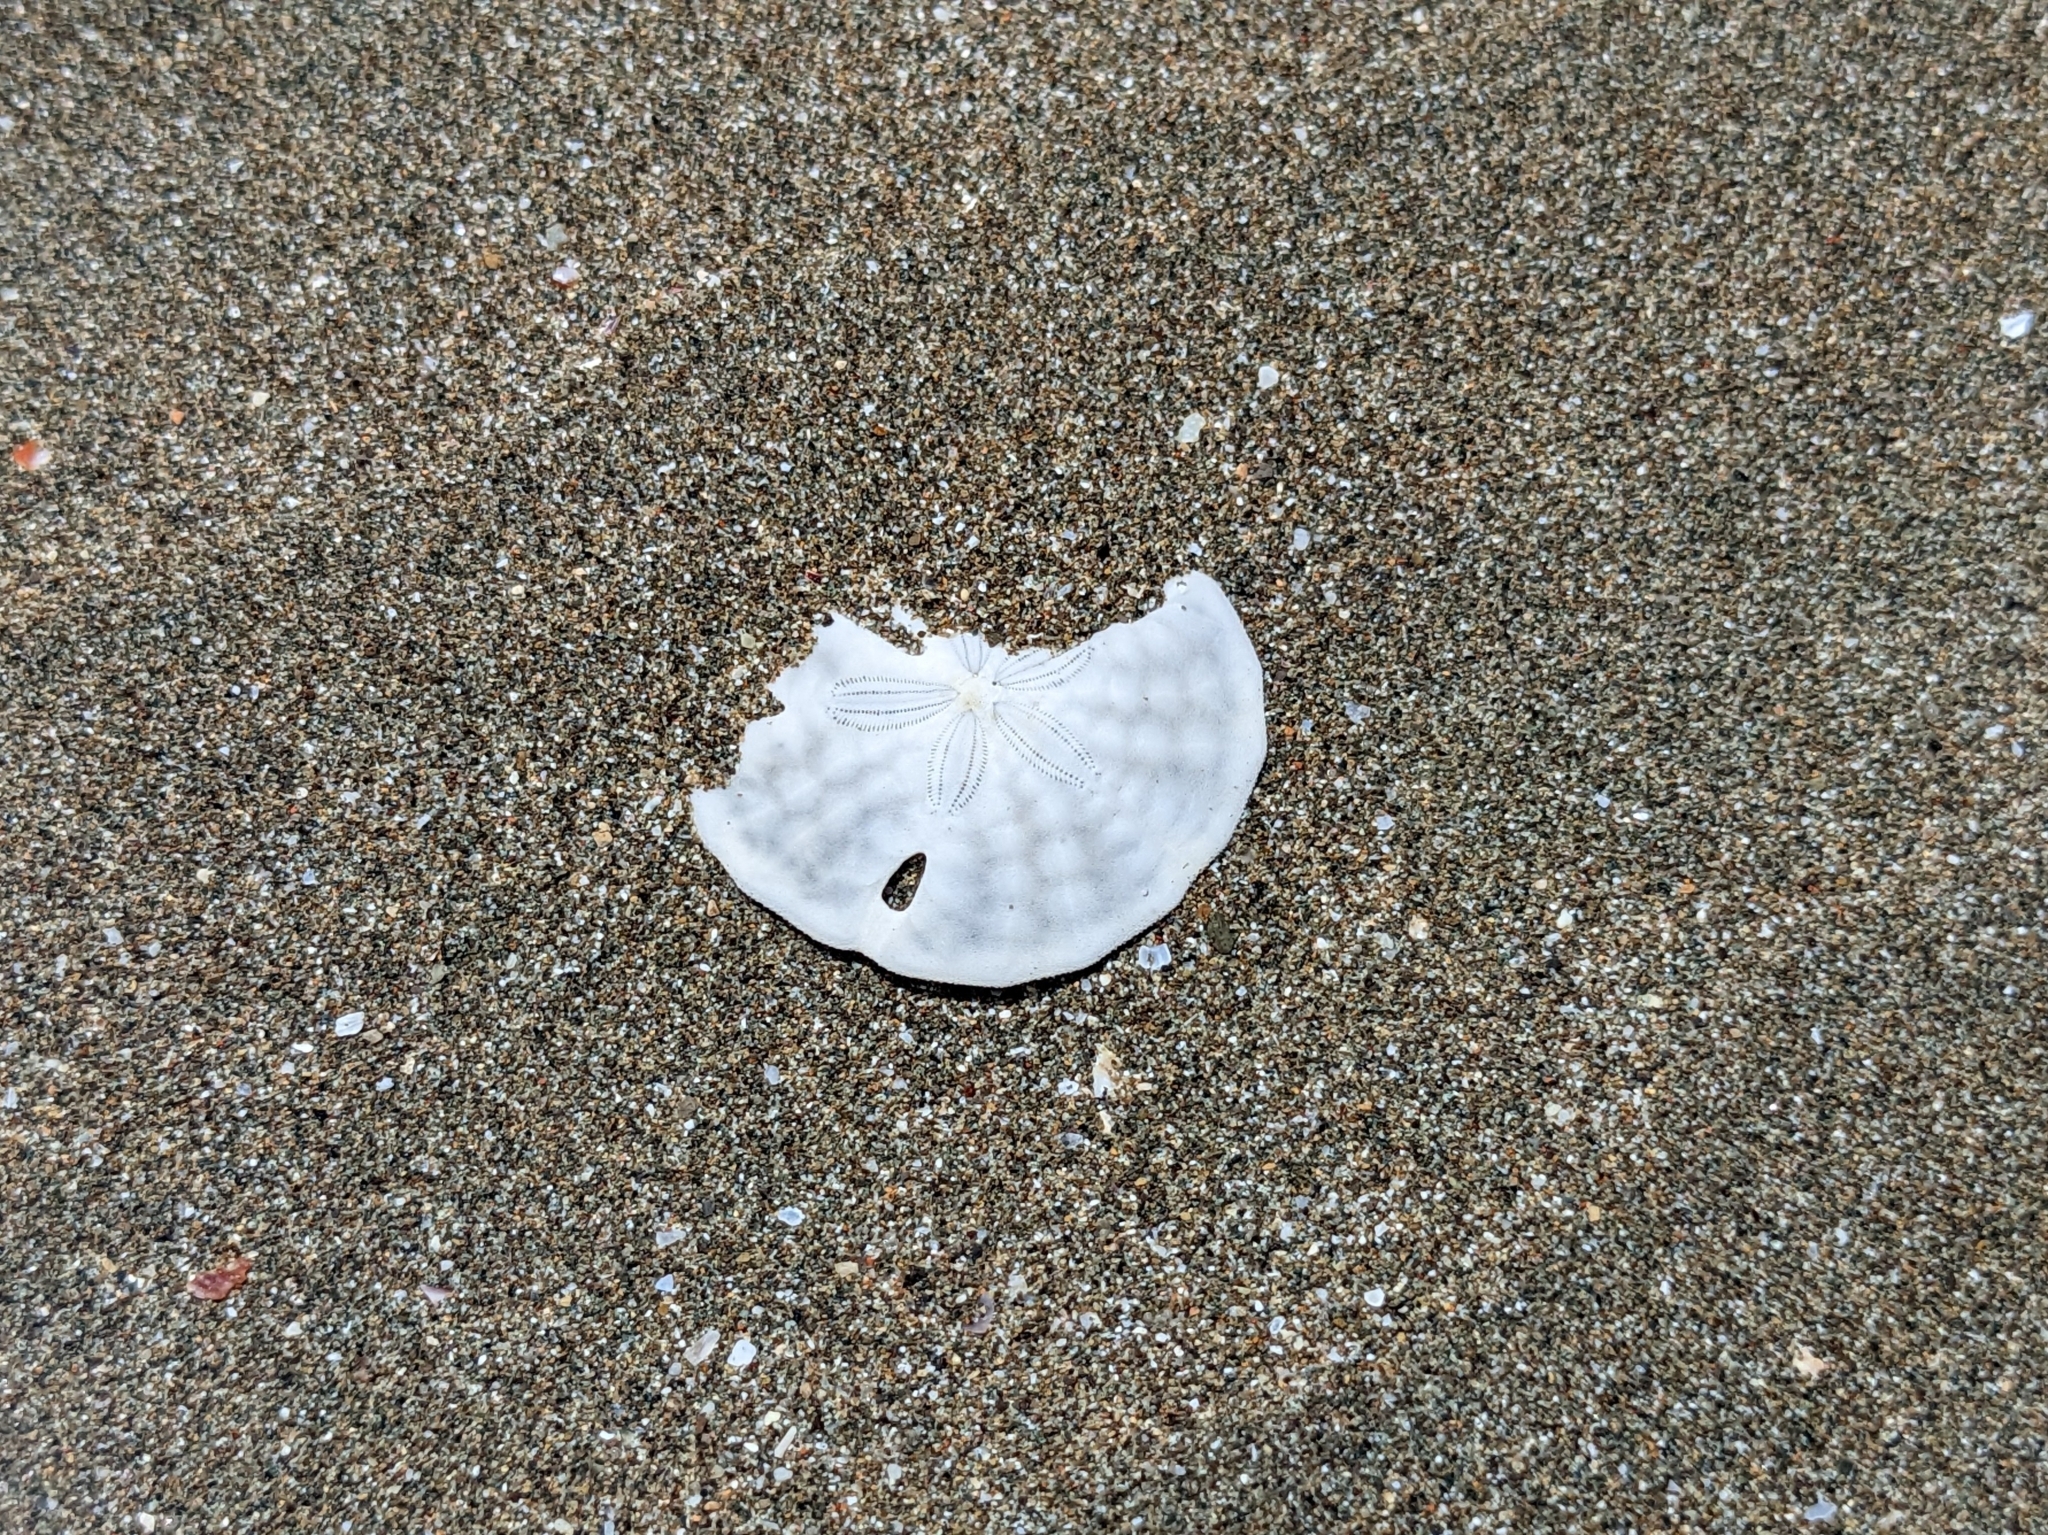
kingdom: Animalia
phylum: Echinodermata
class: Echinoidea
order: Echinolampadacea
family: Mellitidae
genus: Mellita
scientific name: Mellita quinquiesperforata
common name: Sand dollar
